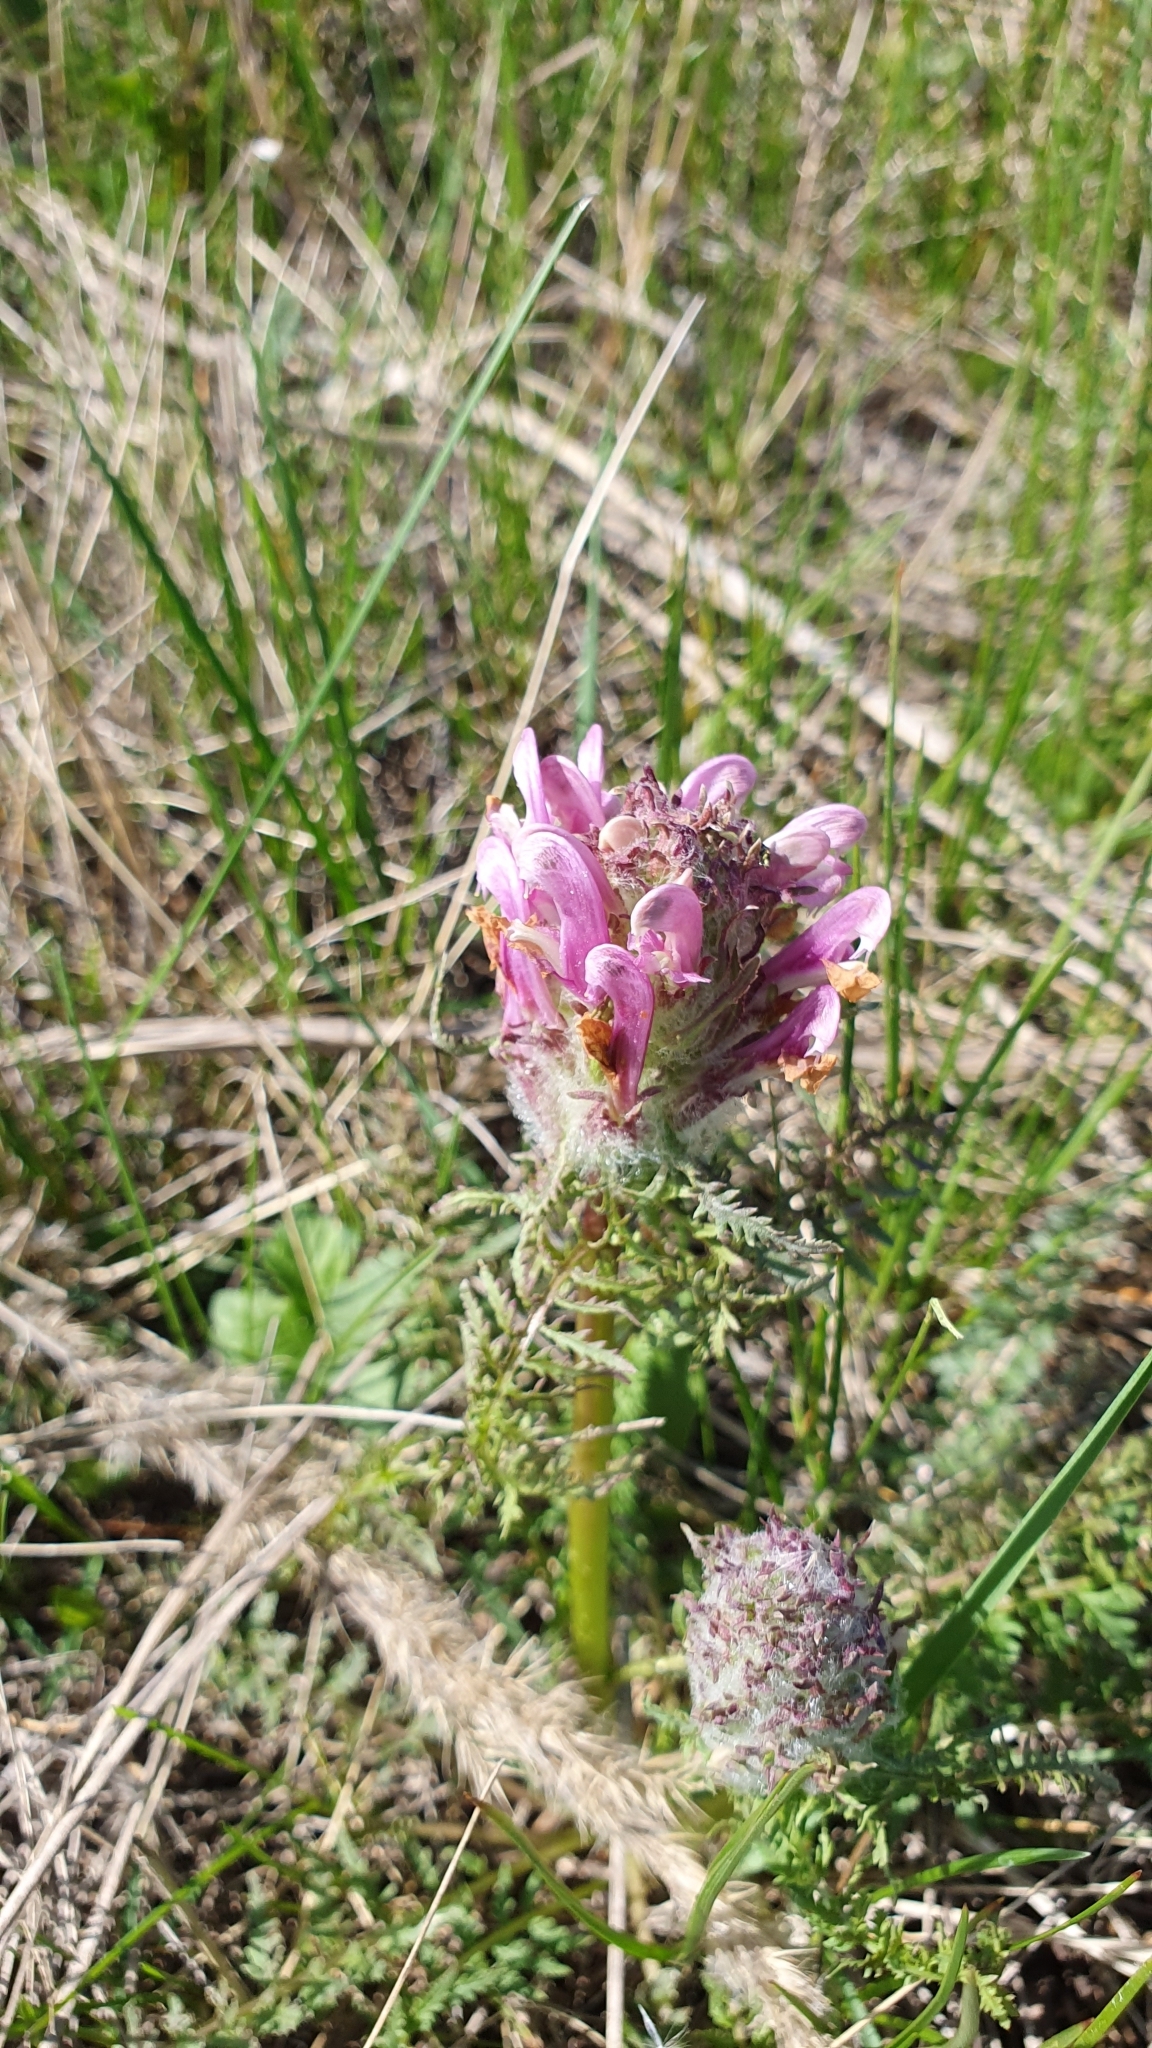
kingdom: Plantae
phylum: Tracheophyta
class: Magnoliopsida
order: Lamiales
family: Orobanchaceae
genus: Pedicularis
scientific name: Pedicularis dasystachys
